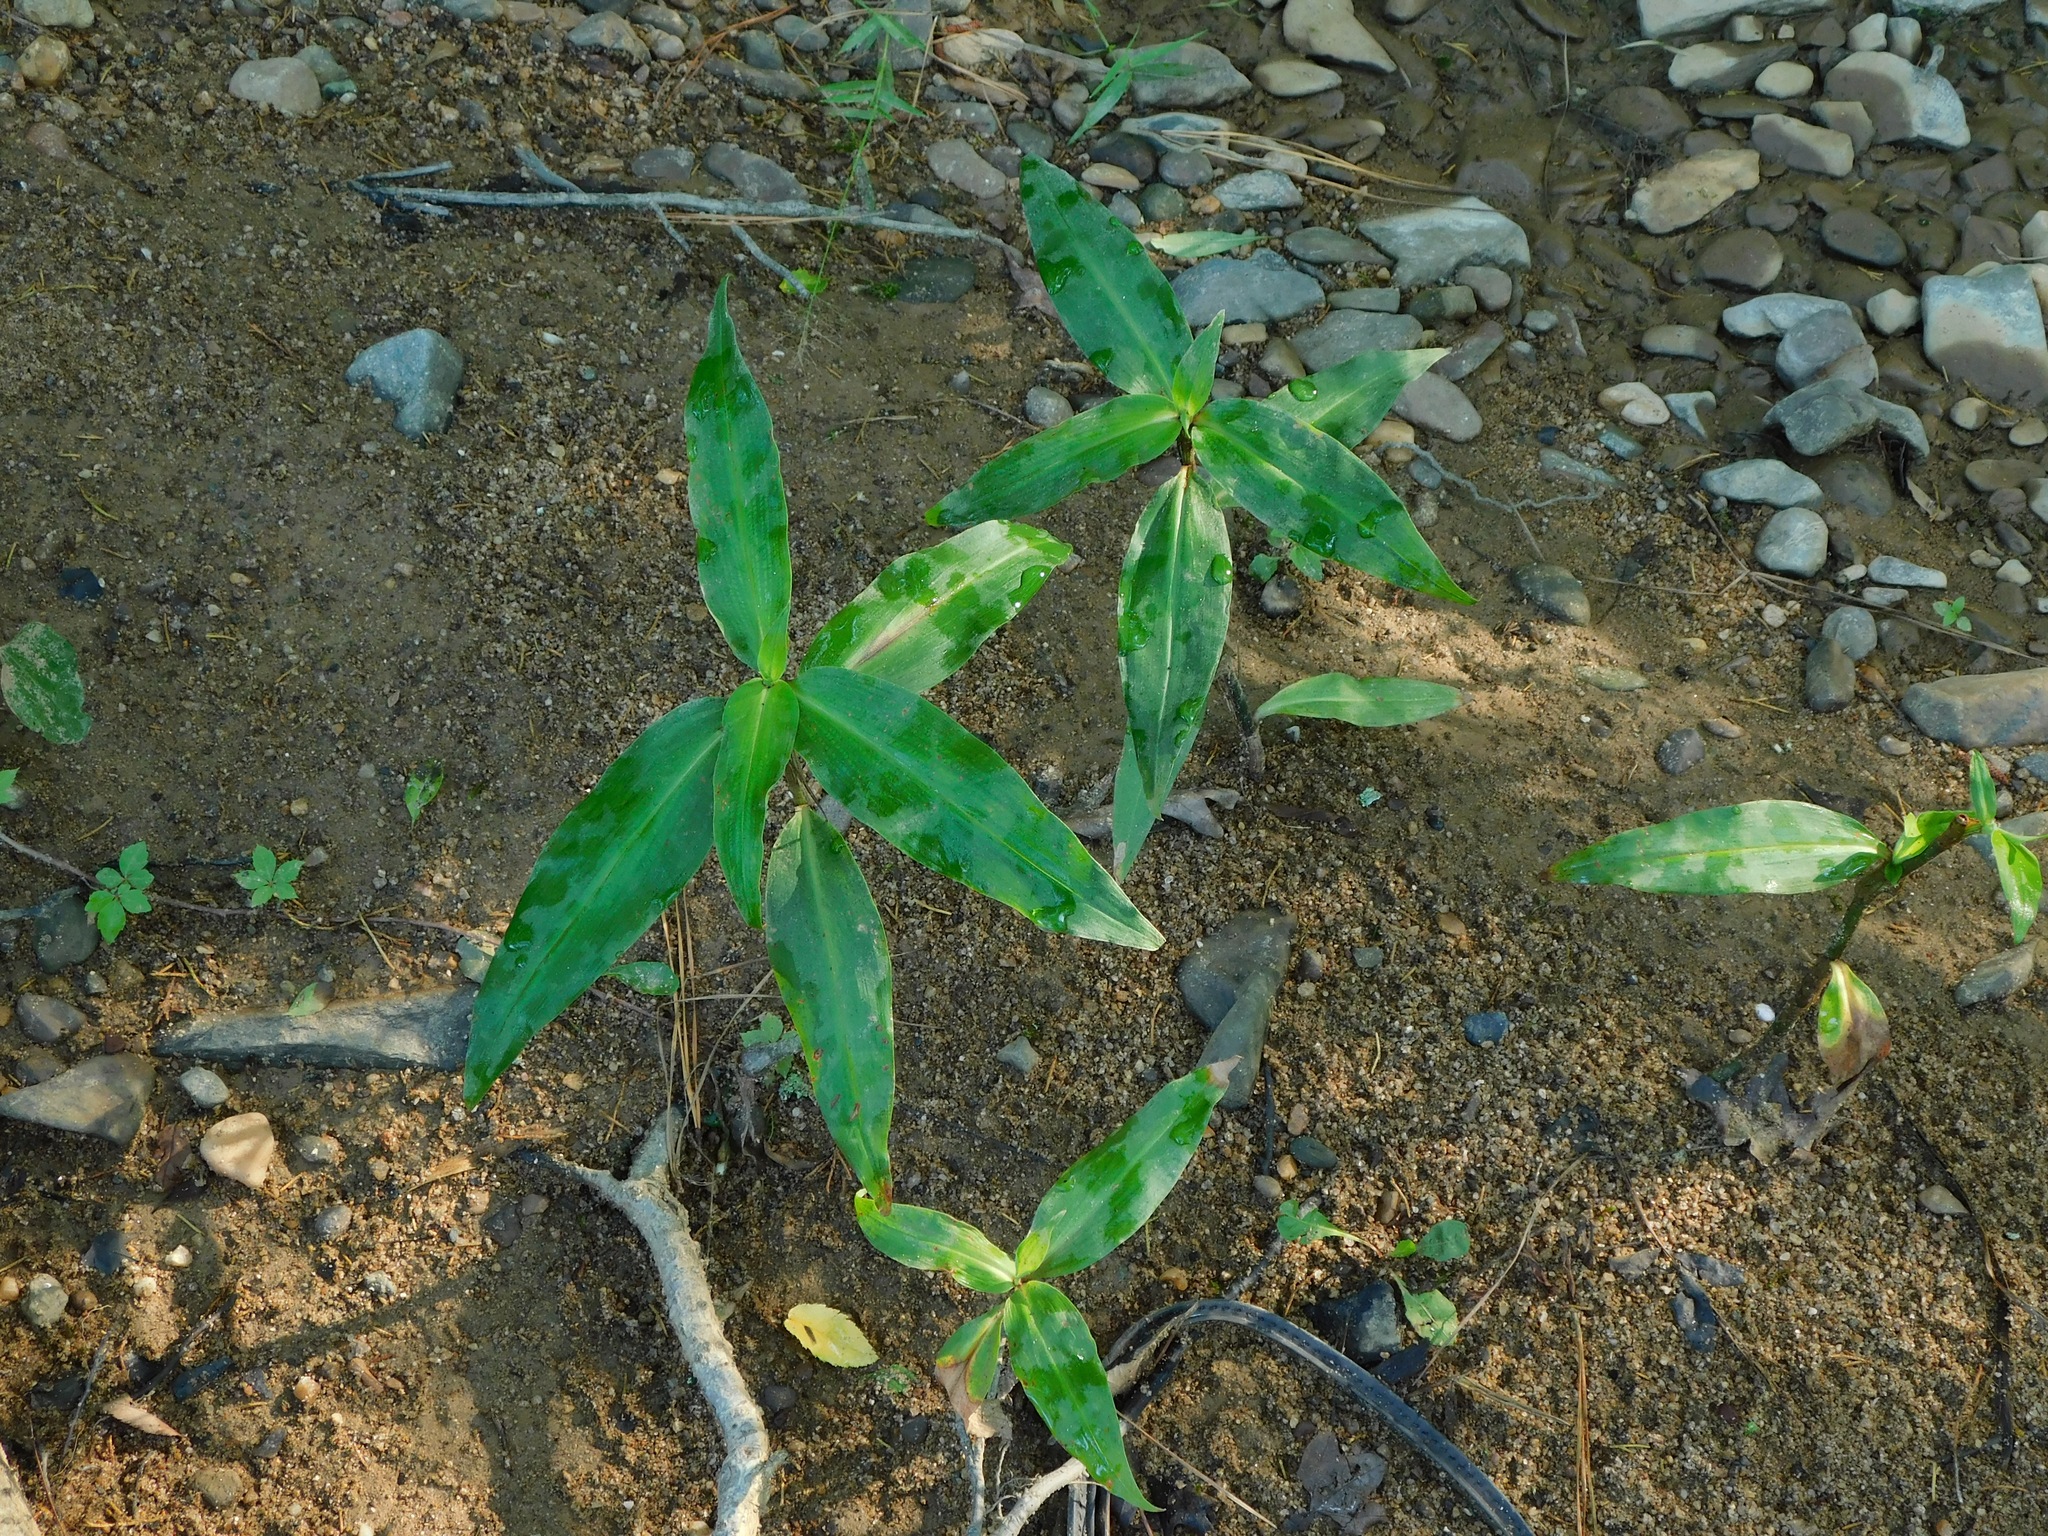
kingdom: Plantae
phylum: Tracheophyta
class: Liliopsida
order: Commelinales
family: Commelinaceae
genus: Commelina
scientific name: Commelina virginica
